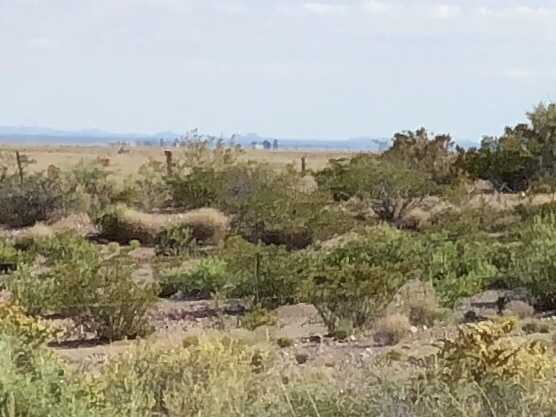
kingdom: Plantae
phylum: Tracheophyta
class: Magnoliopsida
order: Zygophyllales
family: Zygophyllaceae
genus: Larrea
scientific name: Larrea tridentata
